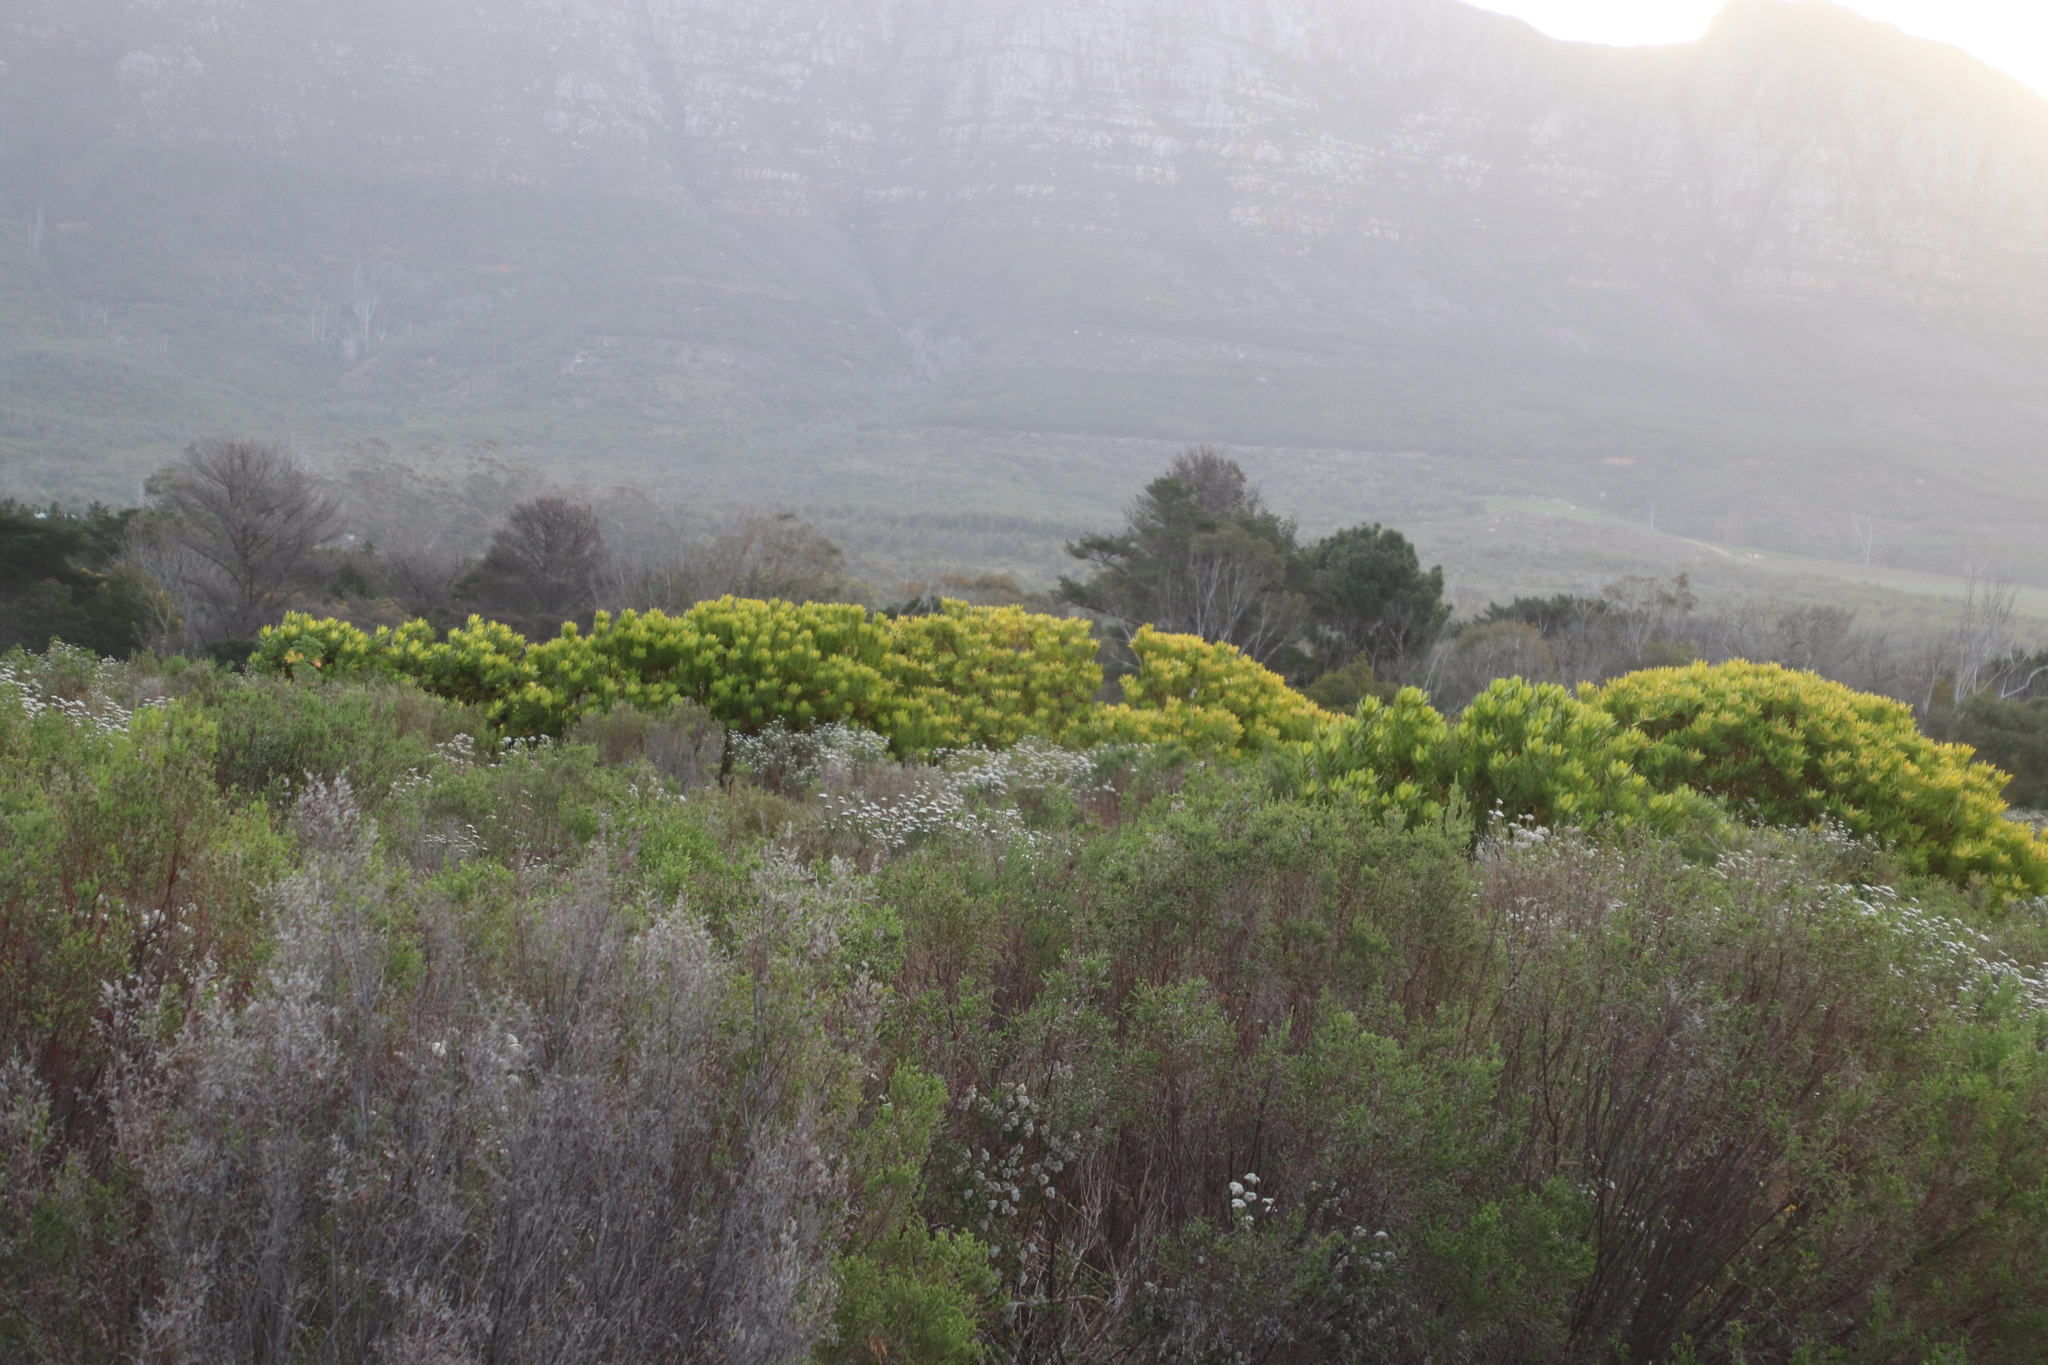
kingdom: Plantae
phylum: Tracheophyta
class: Magnoliopsida
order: Proteales
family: Proteaceae
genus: Leucadendron
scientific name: Leucadendron laureolum
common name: Golden sunshinebush
